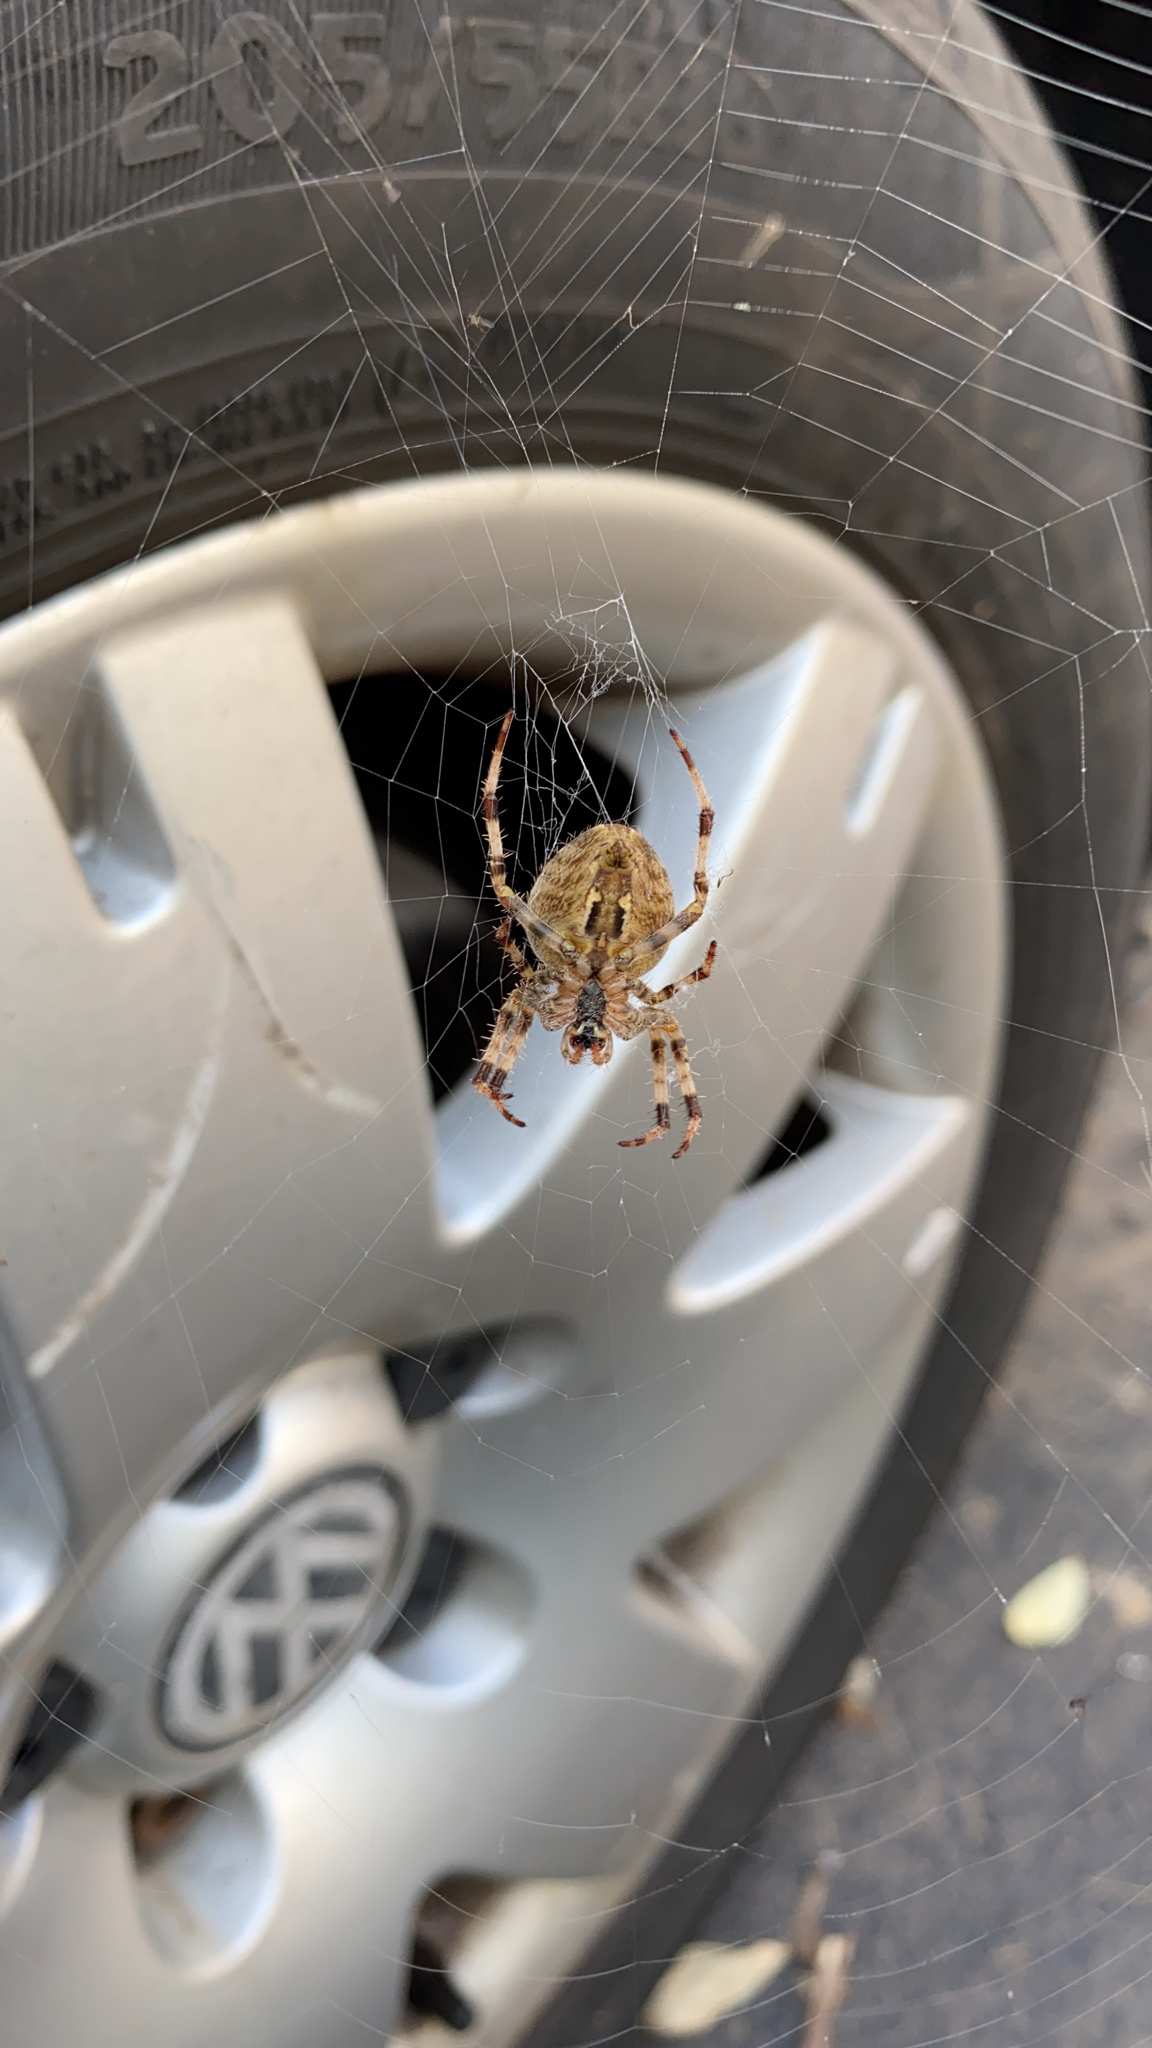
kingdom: Animalia
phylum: Arthropoda
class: Arachnida
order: Araneae
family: Araneidae
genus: Araneus
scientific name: Araneus diadematus
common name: Cross orbweaver
